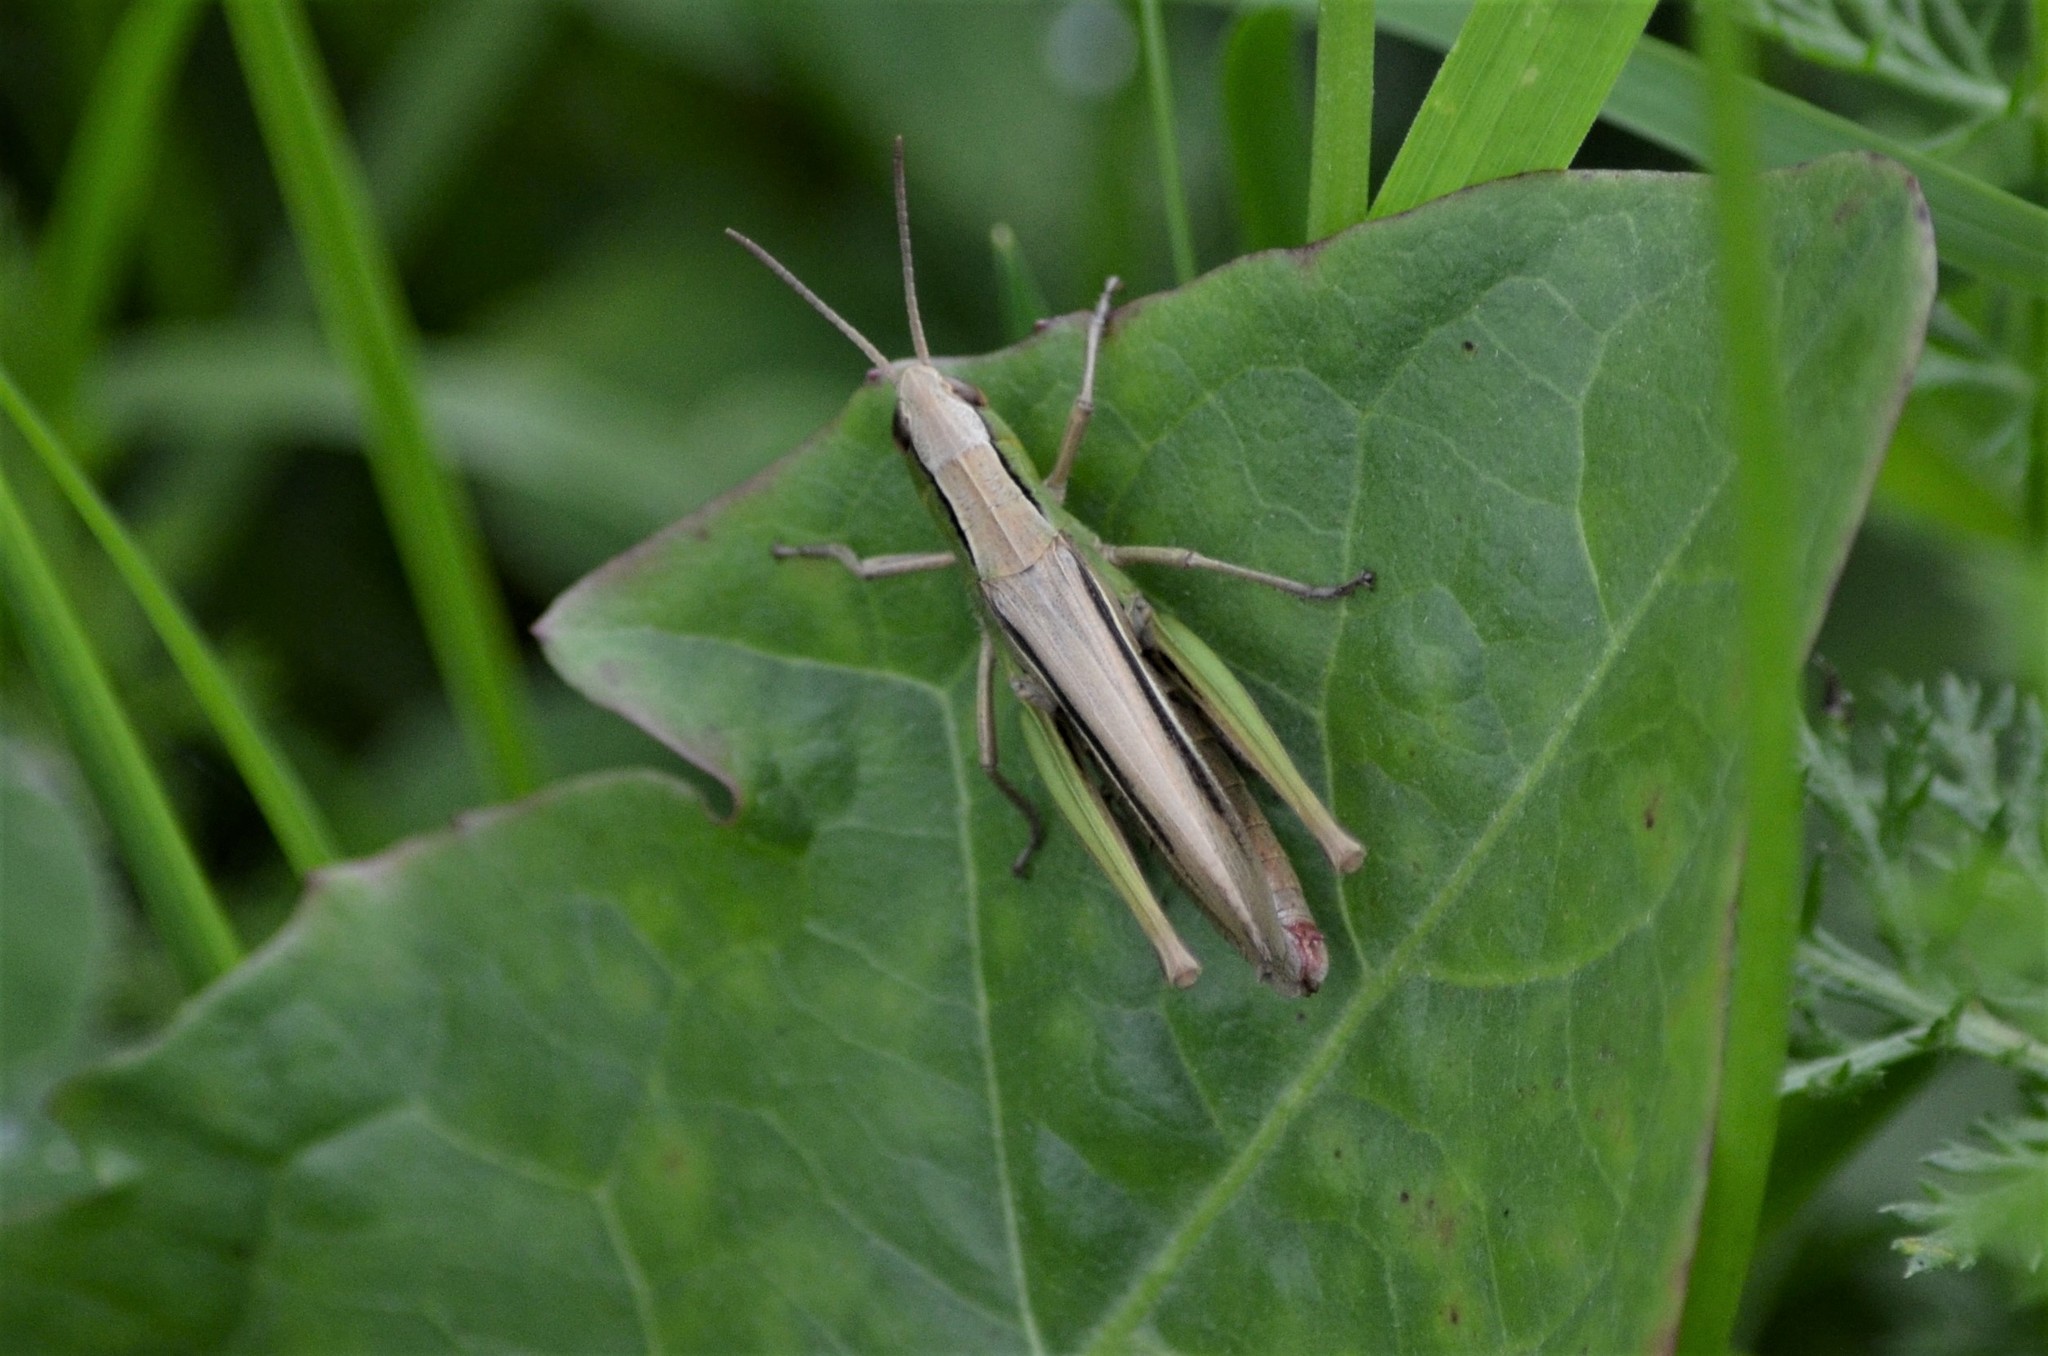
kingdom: Animalia
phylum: Arthropoda
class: Insecta
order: Orthoptera
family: Acrididae
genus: Chorthippus
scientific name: Chorthippus albomarginatus
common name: Lesser marsh grasshopper
